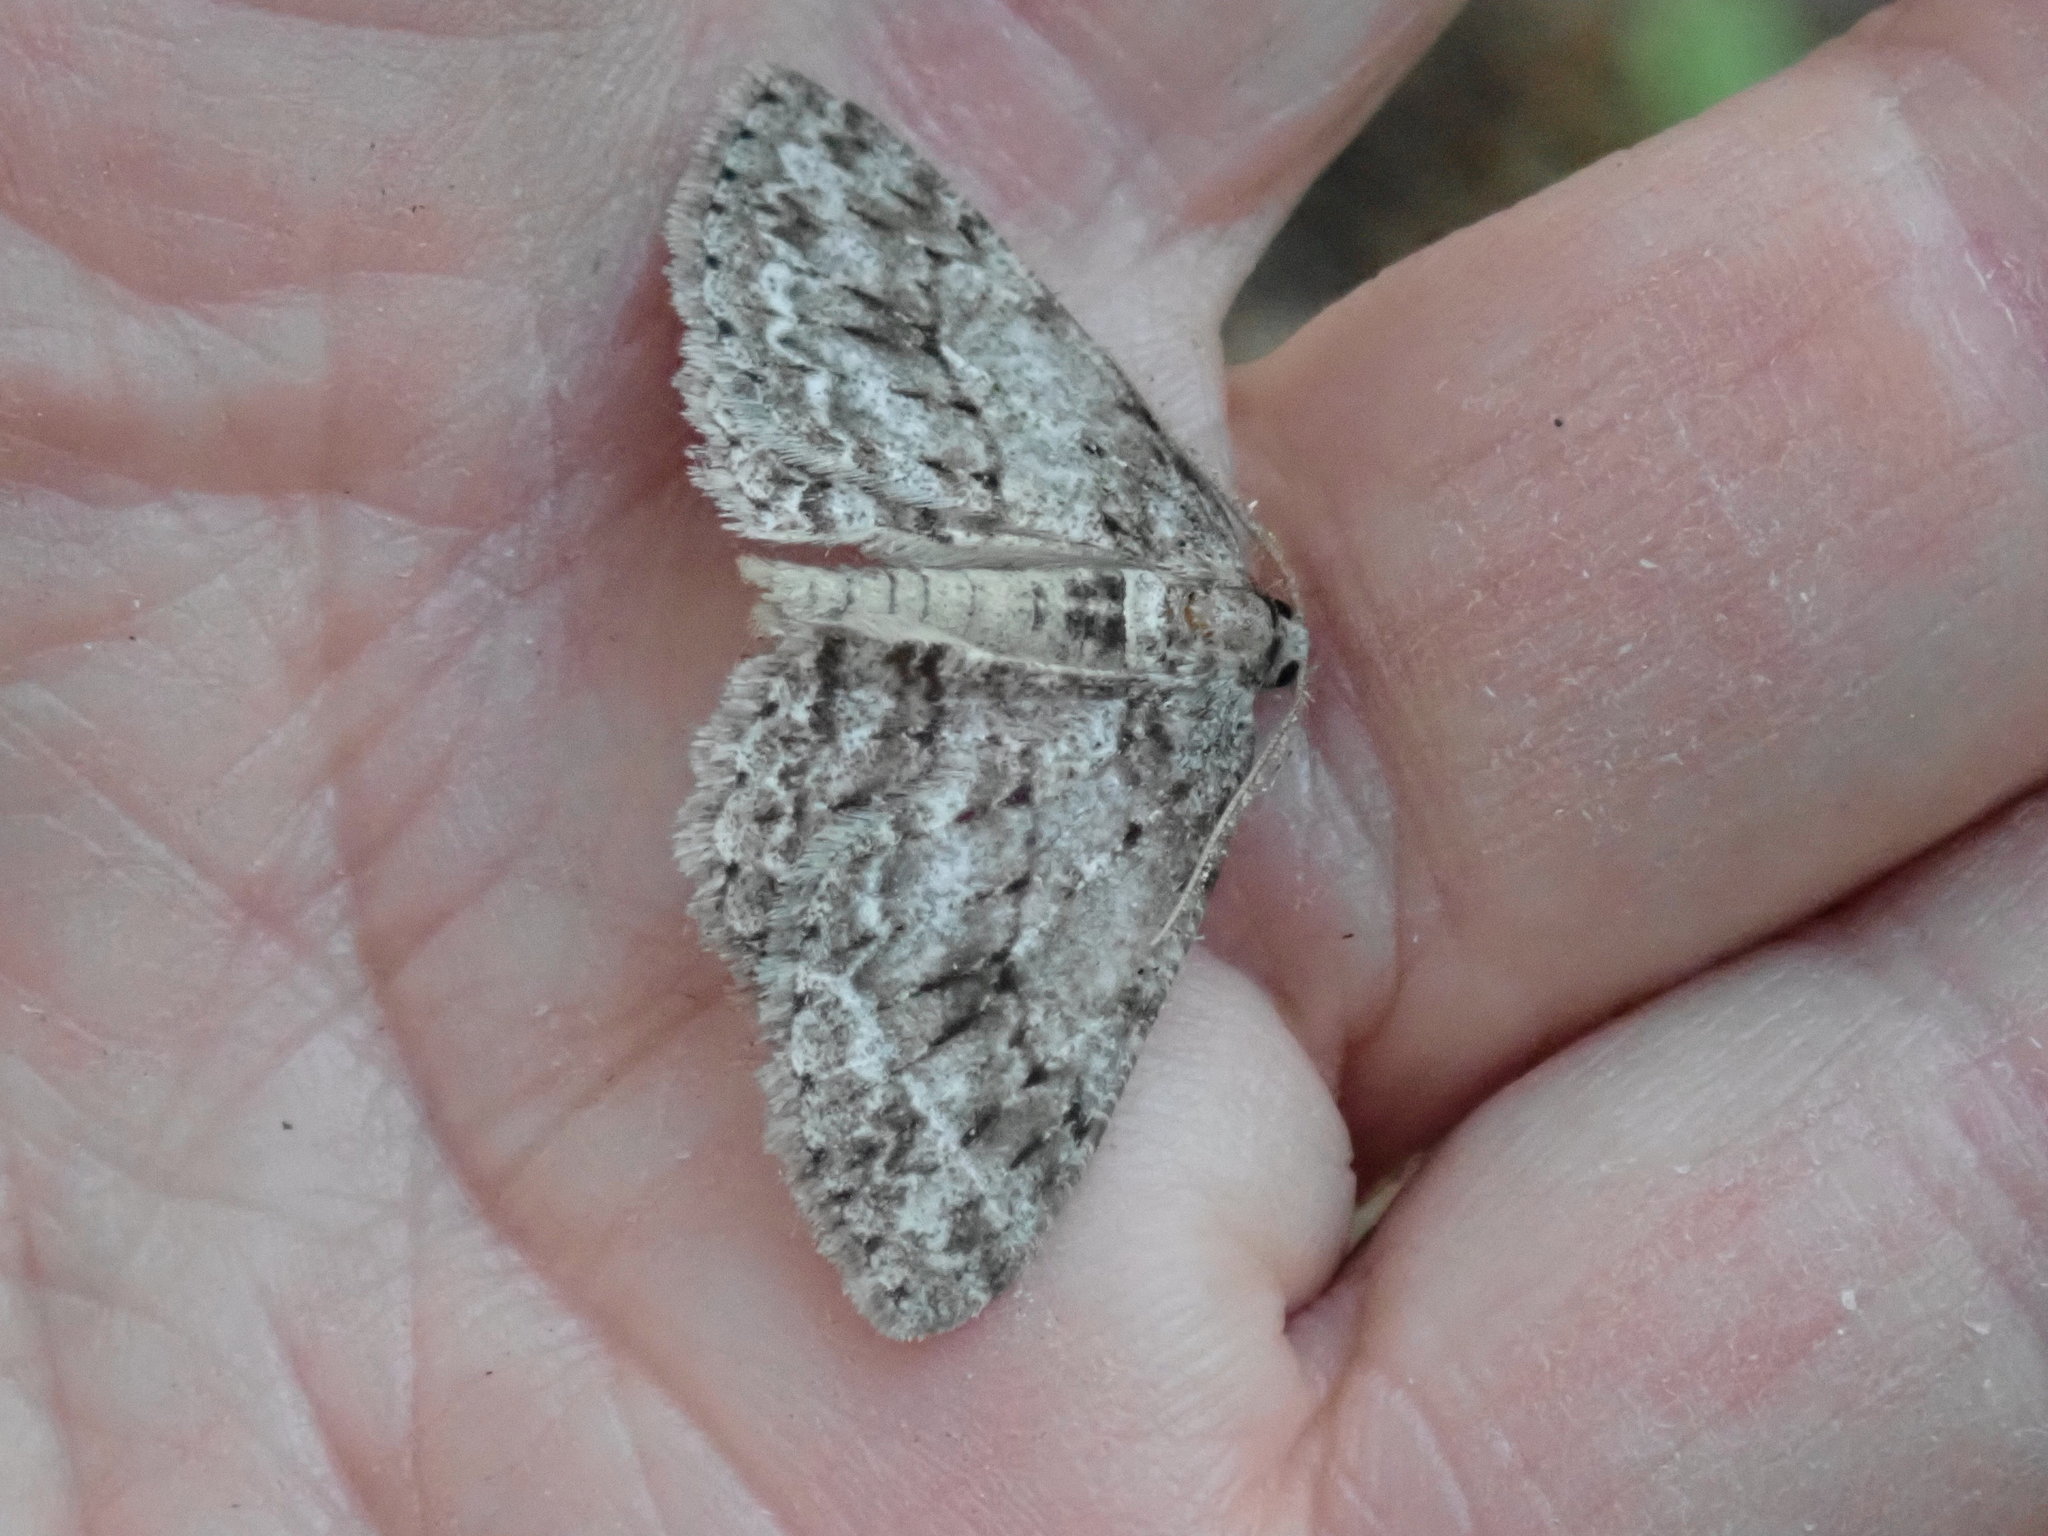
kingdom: Animalia
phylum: Arthropoda
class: Insecta
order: Lepidoptera
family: Geometridae
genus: Ectropis
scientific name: Ectropis crepuscularia
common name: Engrailed
